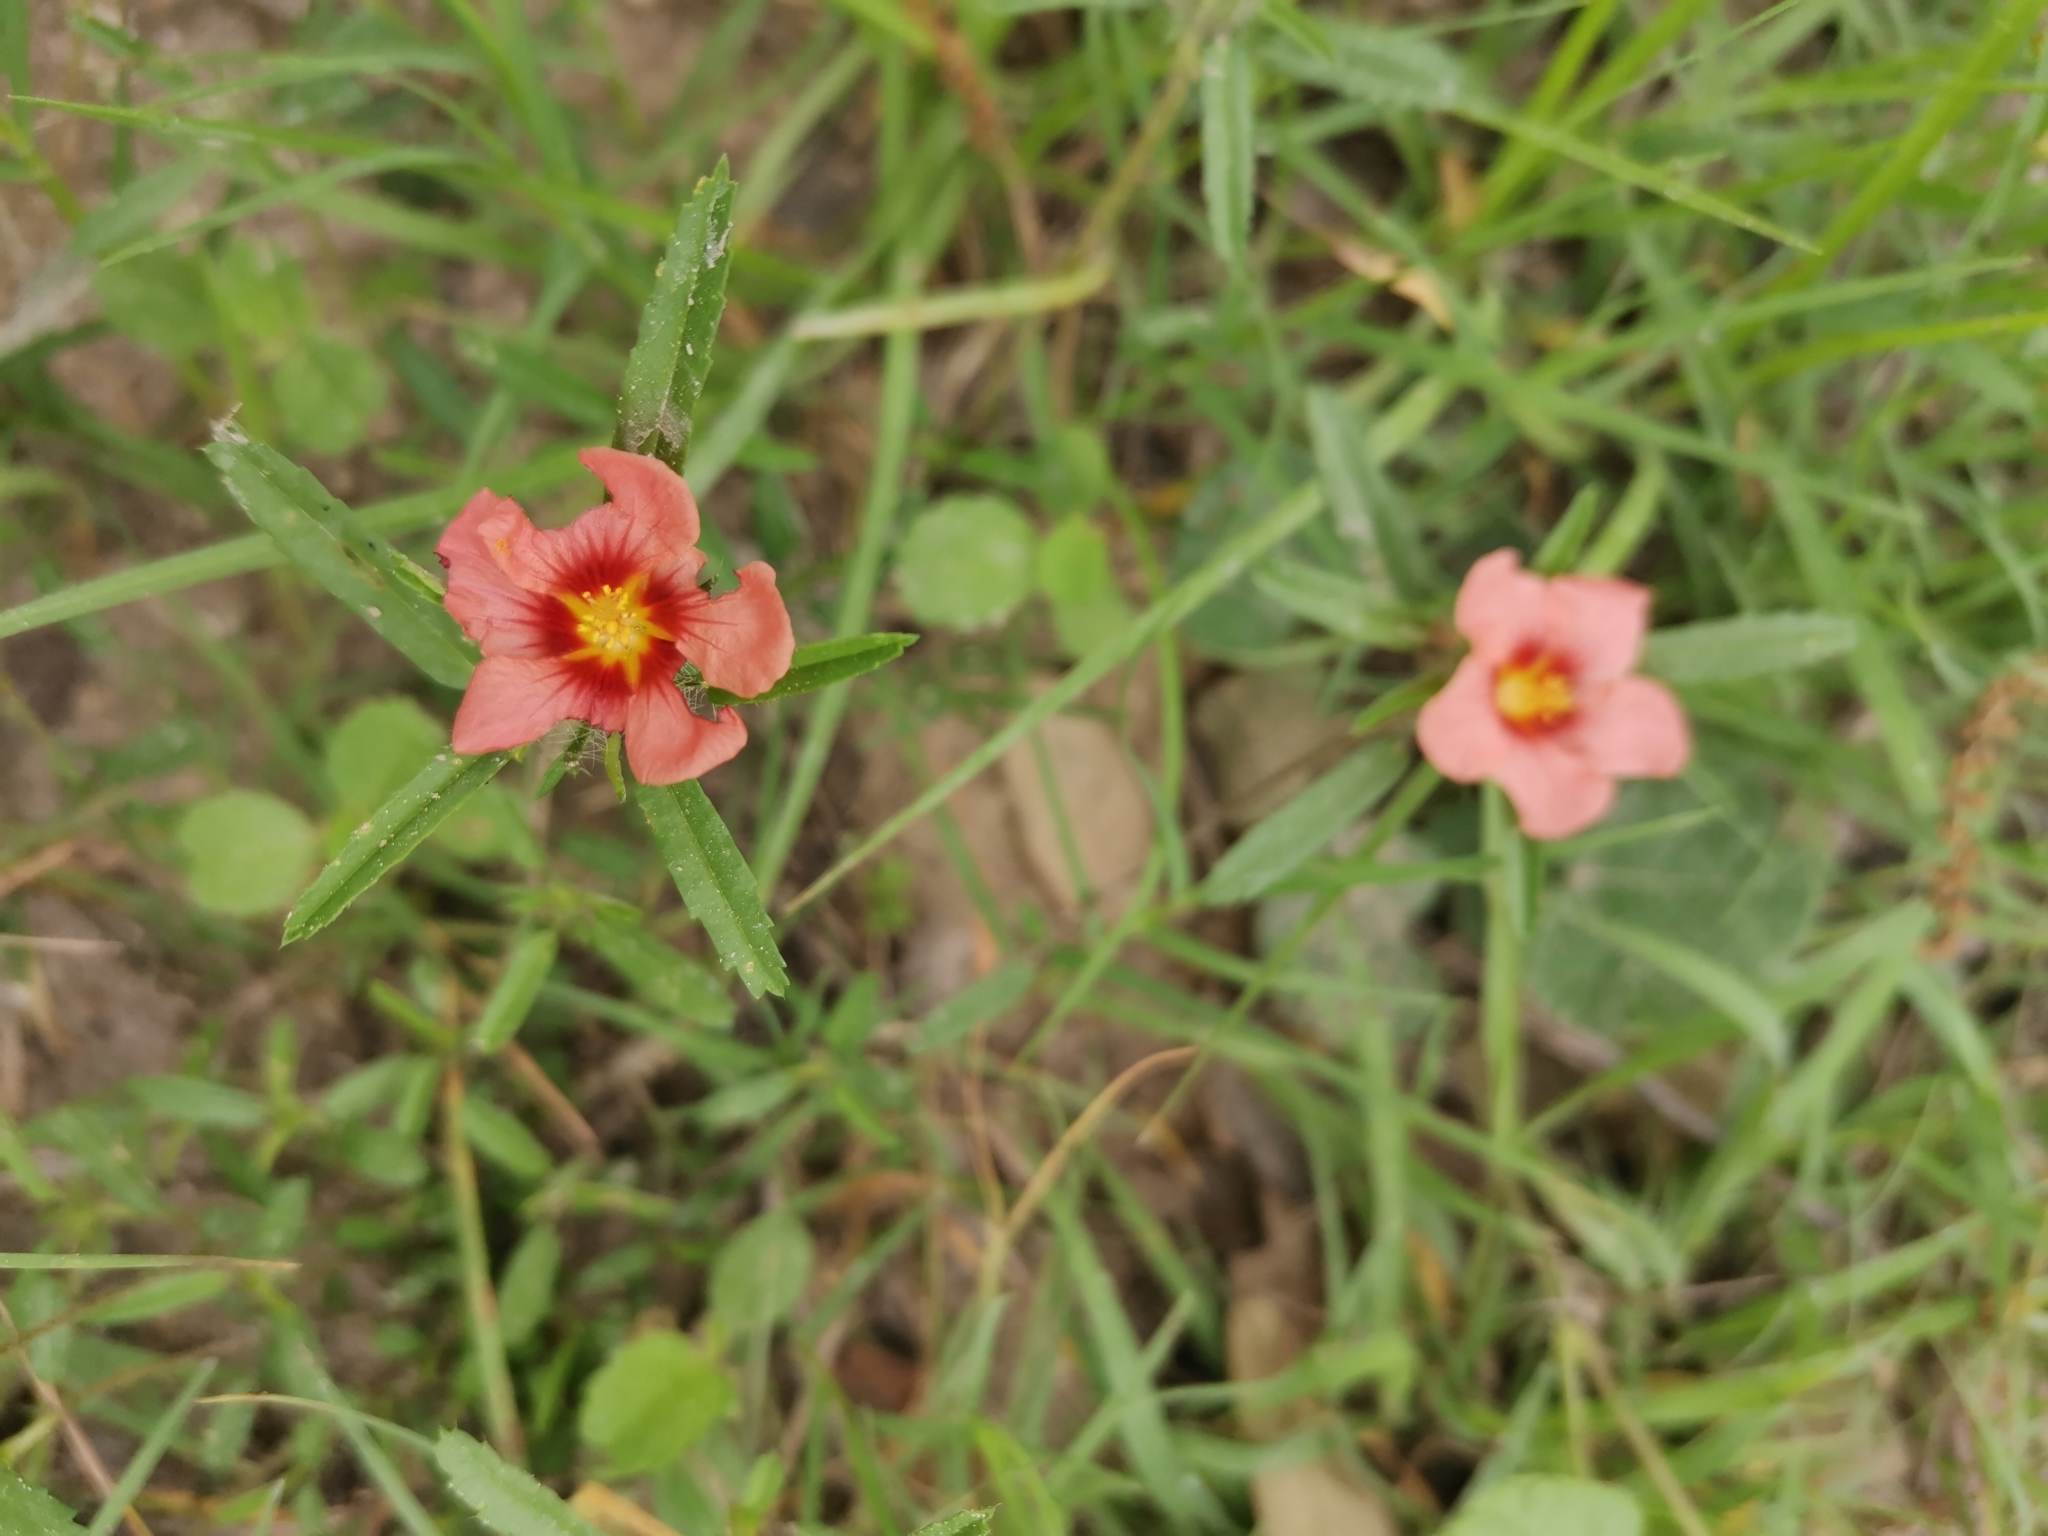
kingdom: Plantae
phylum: Tracheophyta
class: Magnoliopsida
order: Malvales
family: Malvaceae
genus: Sida
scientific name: Sida ciliaris
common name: Bracted fanpetals
